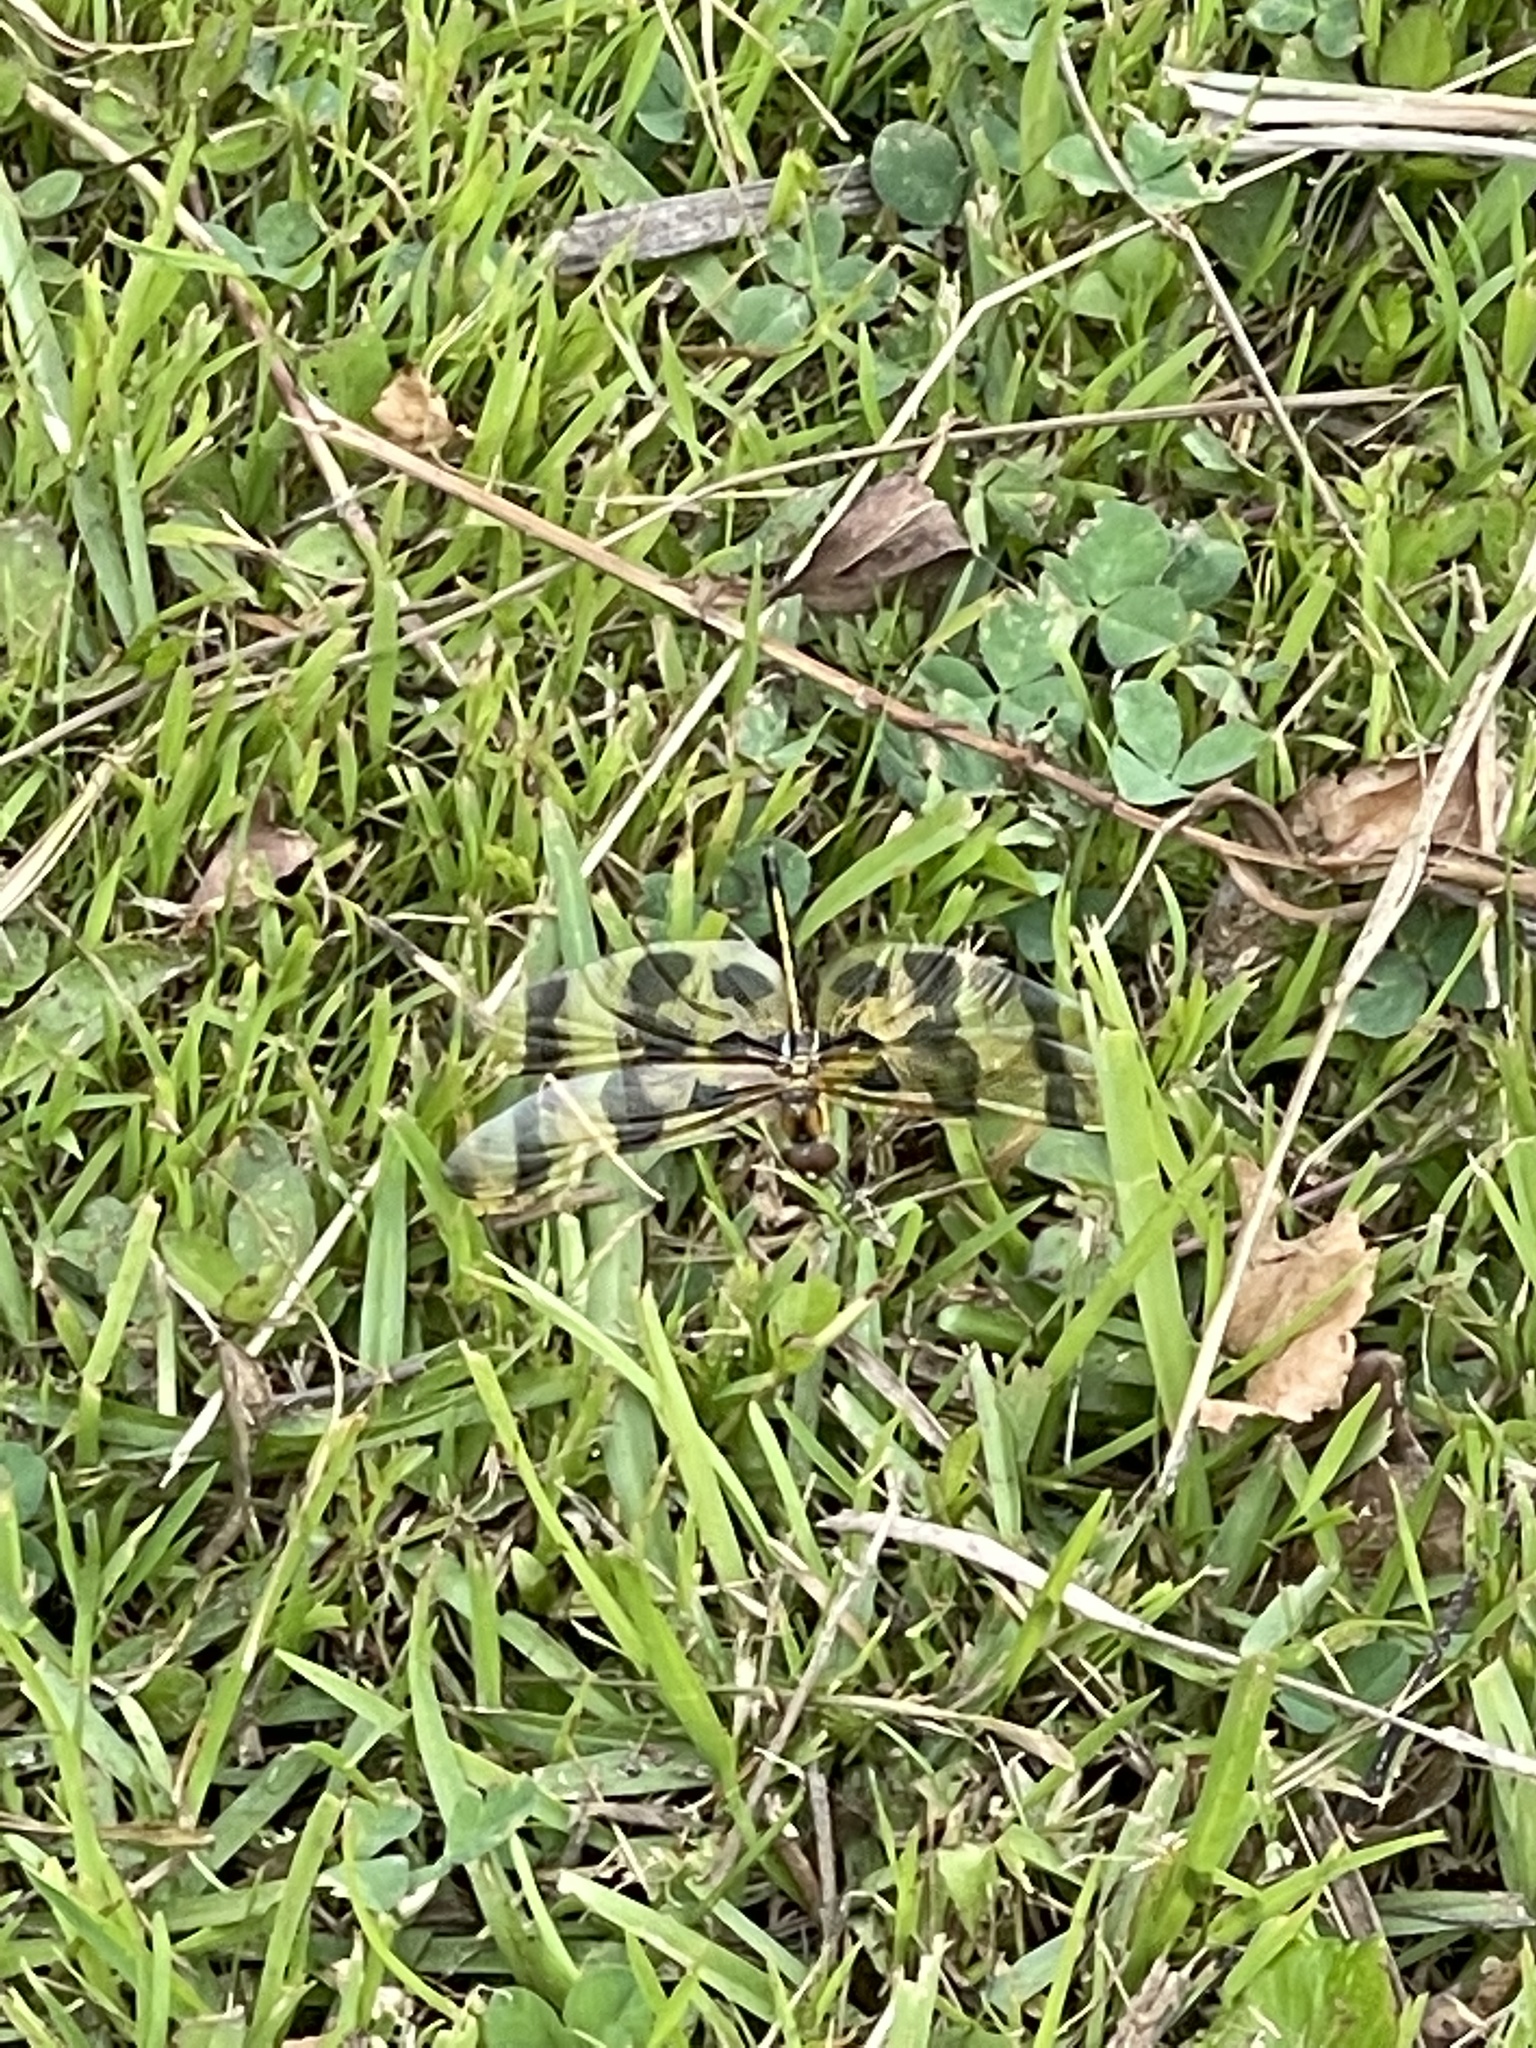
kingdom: Animalia
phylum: Arthropoda
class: Insecta
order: Odonata
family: Libellulidae
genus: Celithemis
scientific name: Celithemis eponina
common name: Halloween pennant
